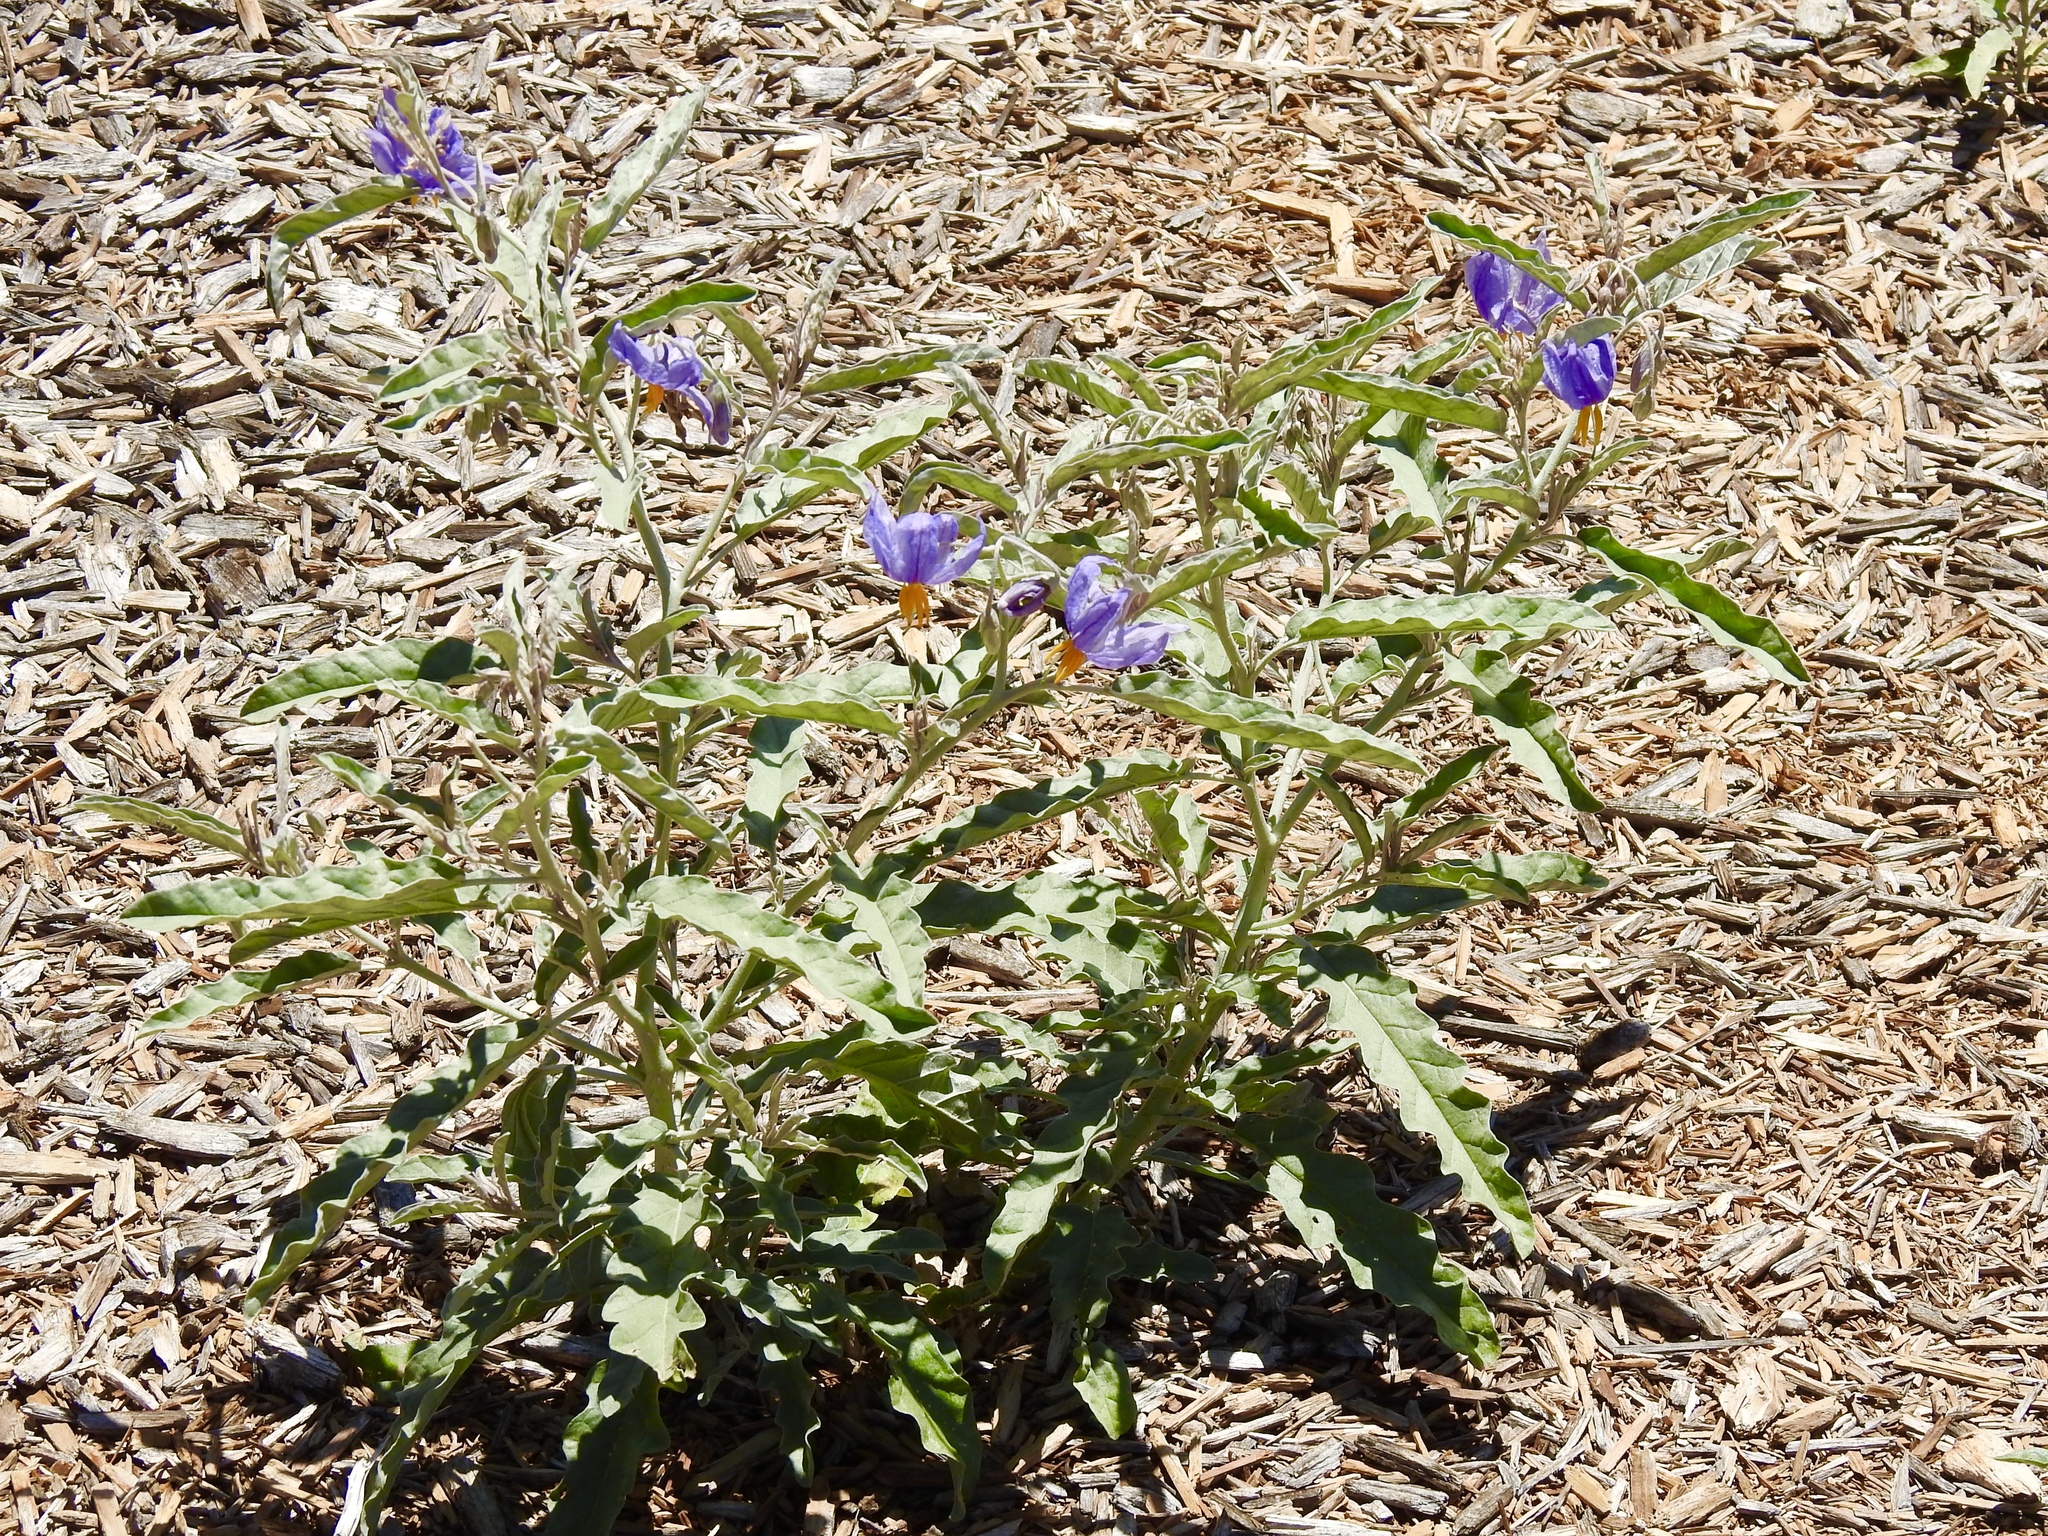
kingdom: Plantae
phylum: Tracheophyta
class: Magnoliopsida
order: Solanales
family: Solanaceae
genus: Solanum
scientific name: Solanum elaeagnifolium
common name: Silverleaf nightshade
